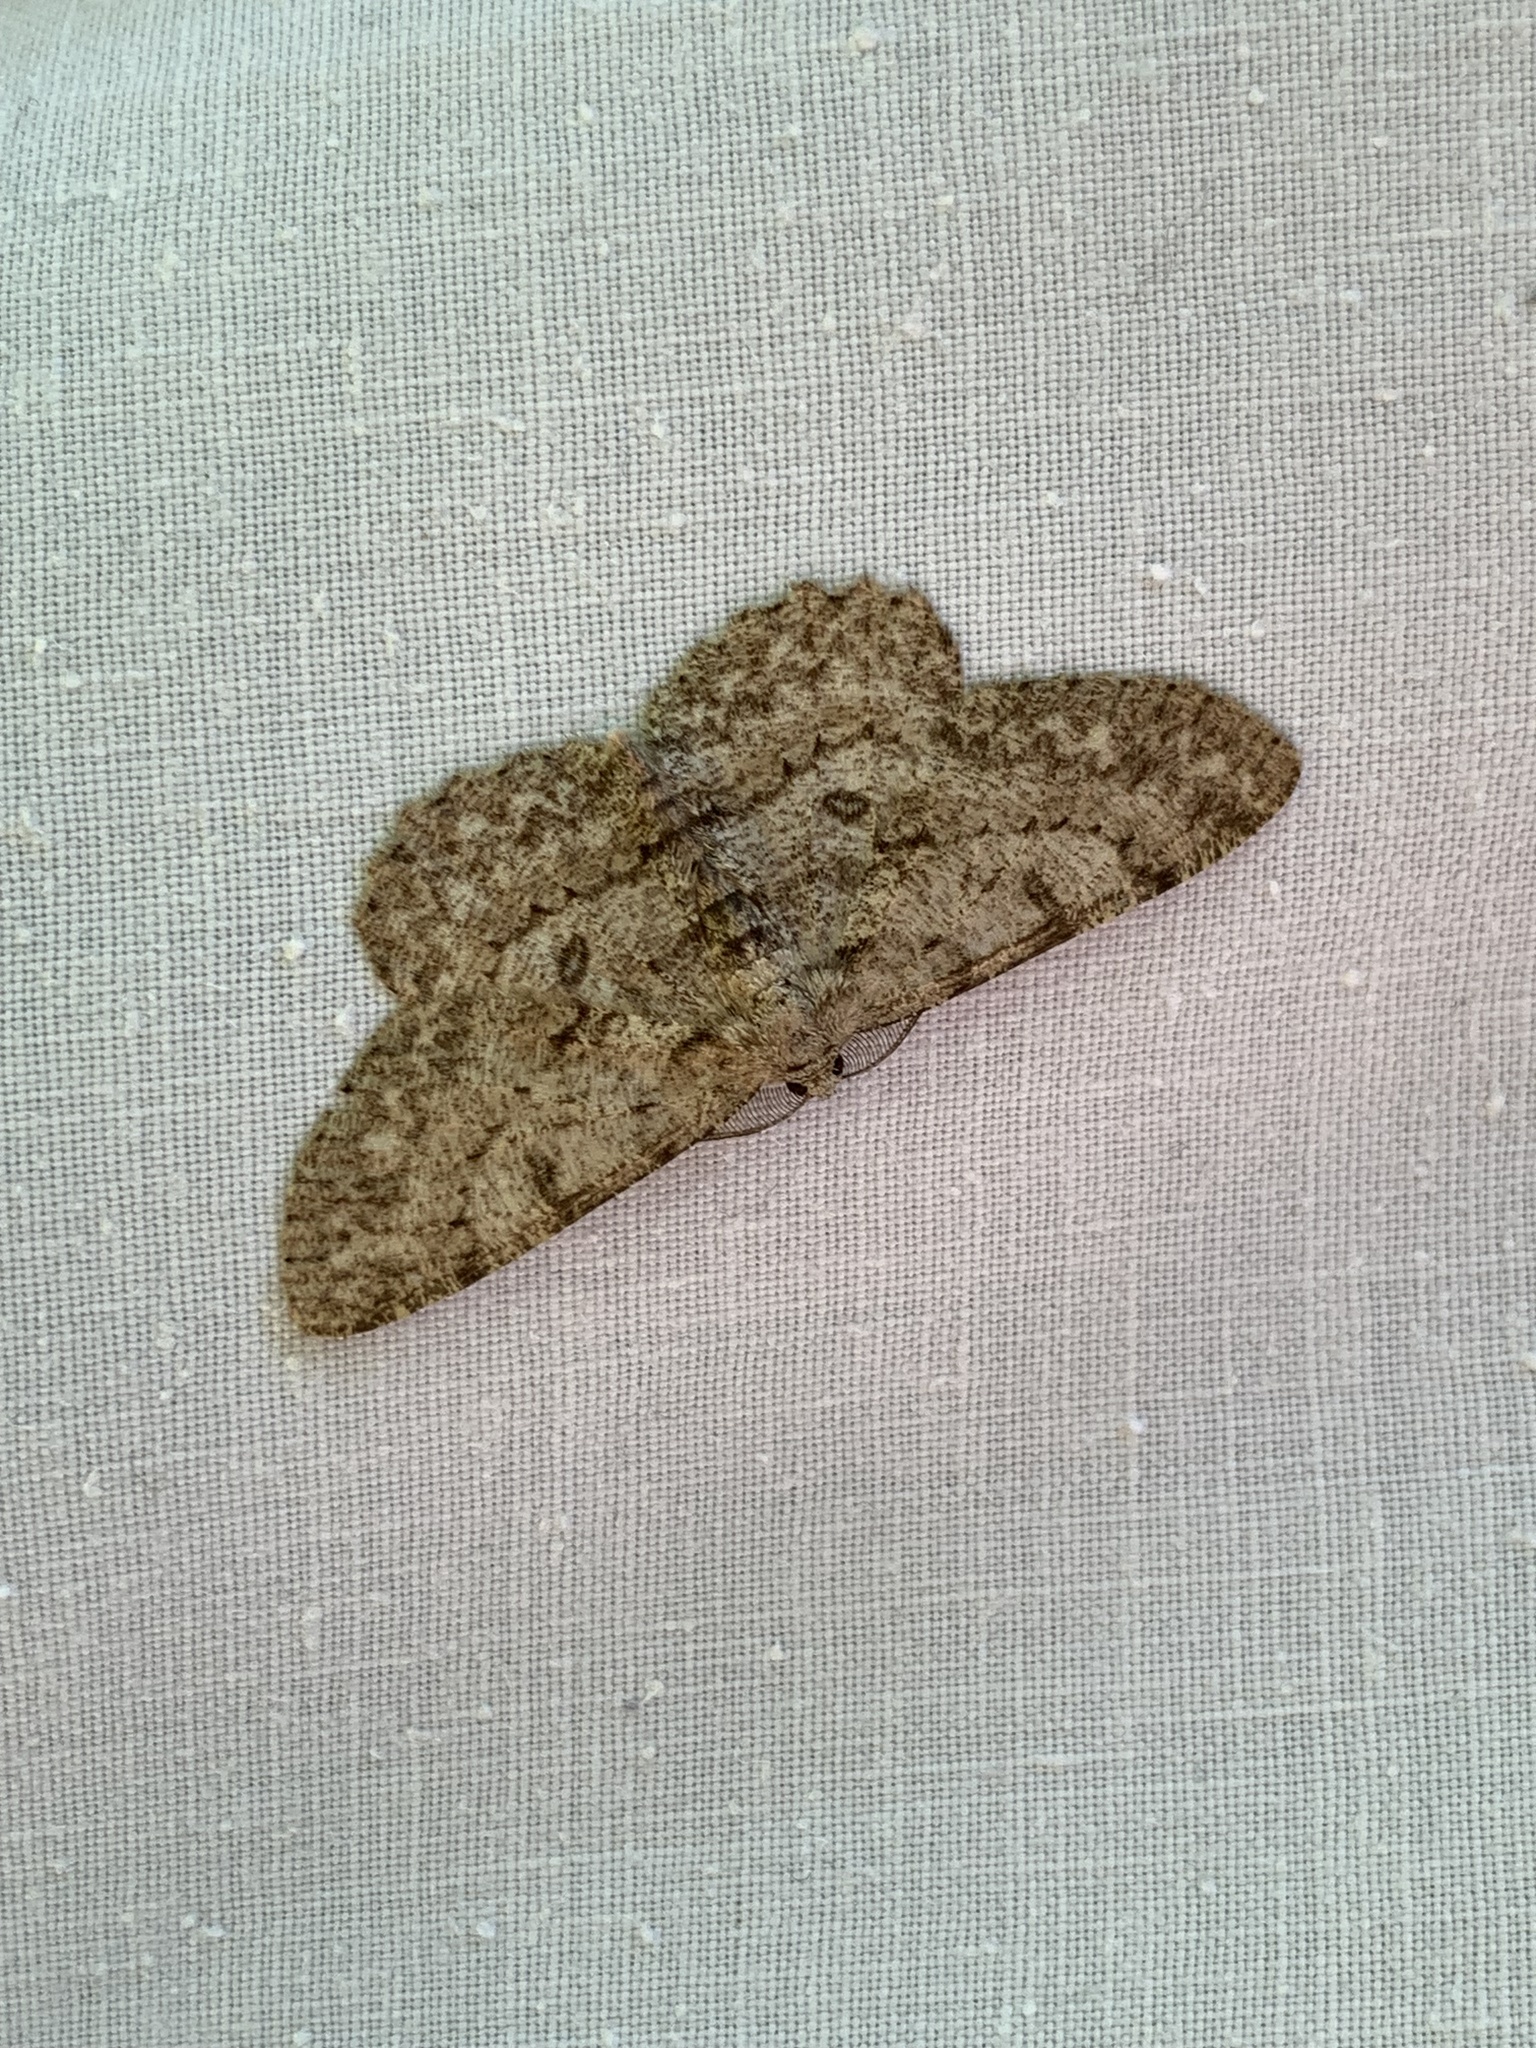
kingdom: Animalia
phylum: Arthropoda
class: Insecta
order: Lepidoptera
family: Geometridae
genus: Hypomecis
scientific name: Hypomecis punctinalis
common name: Pale oak beauty
